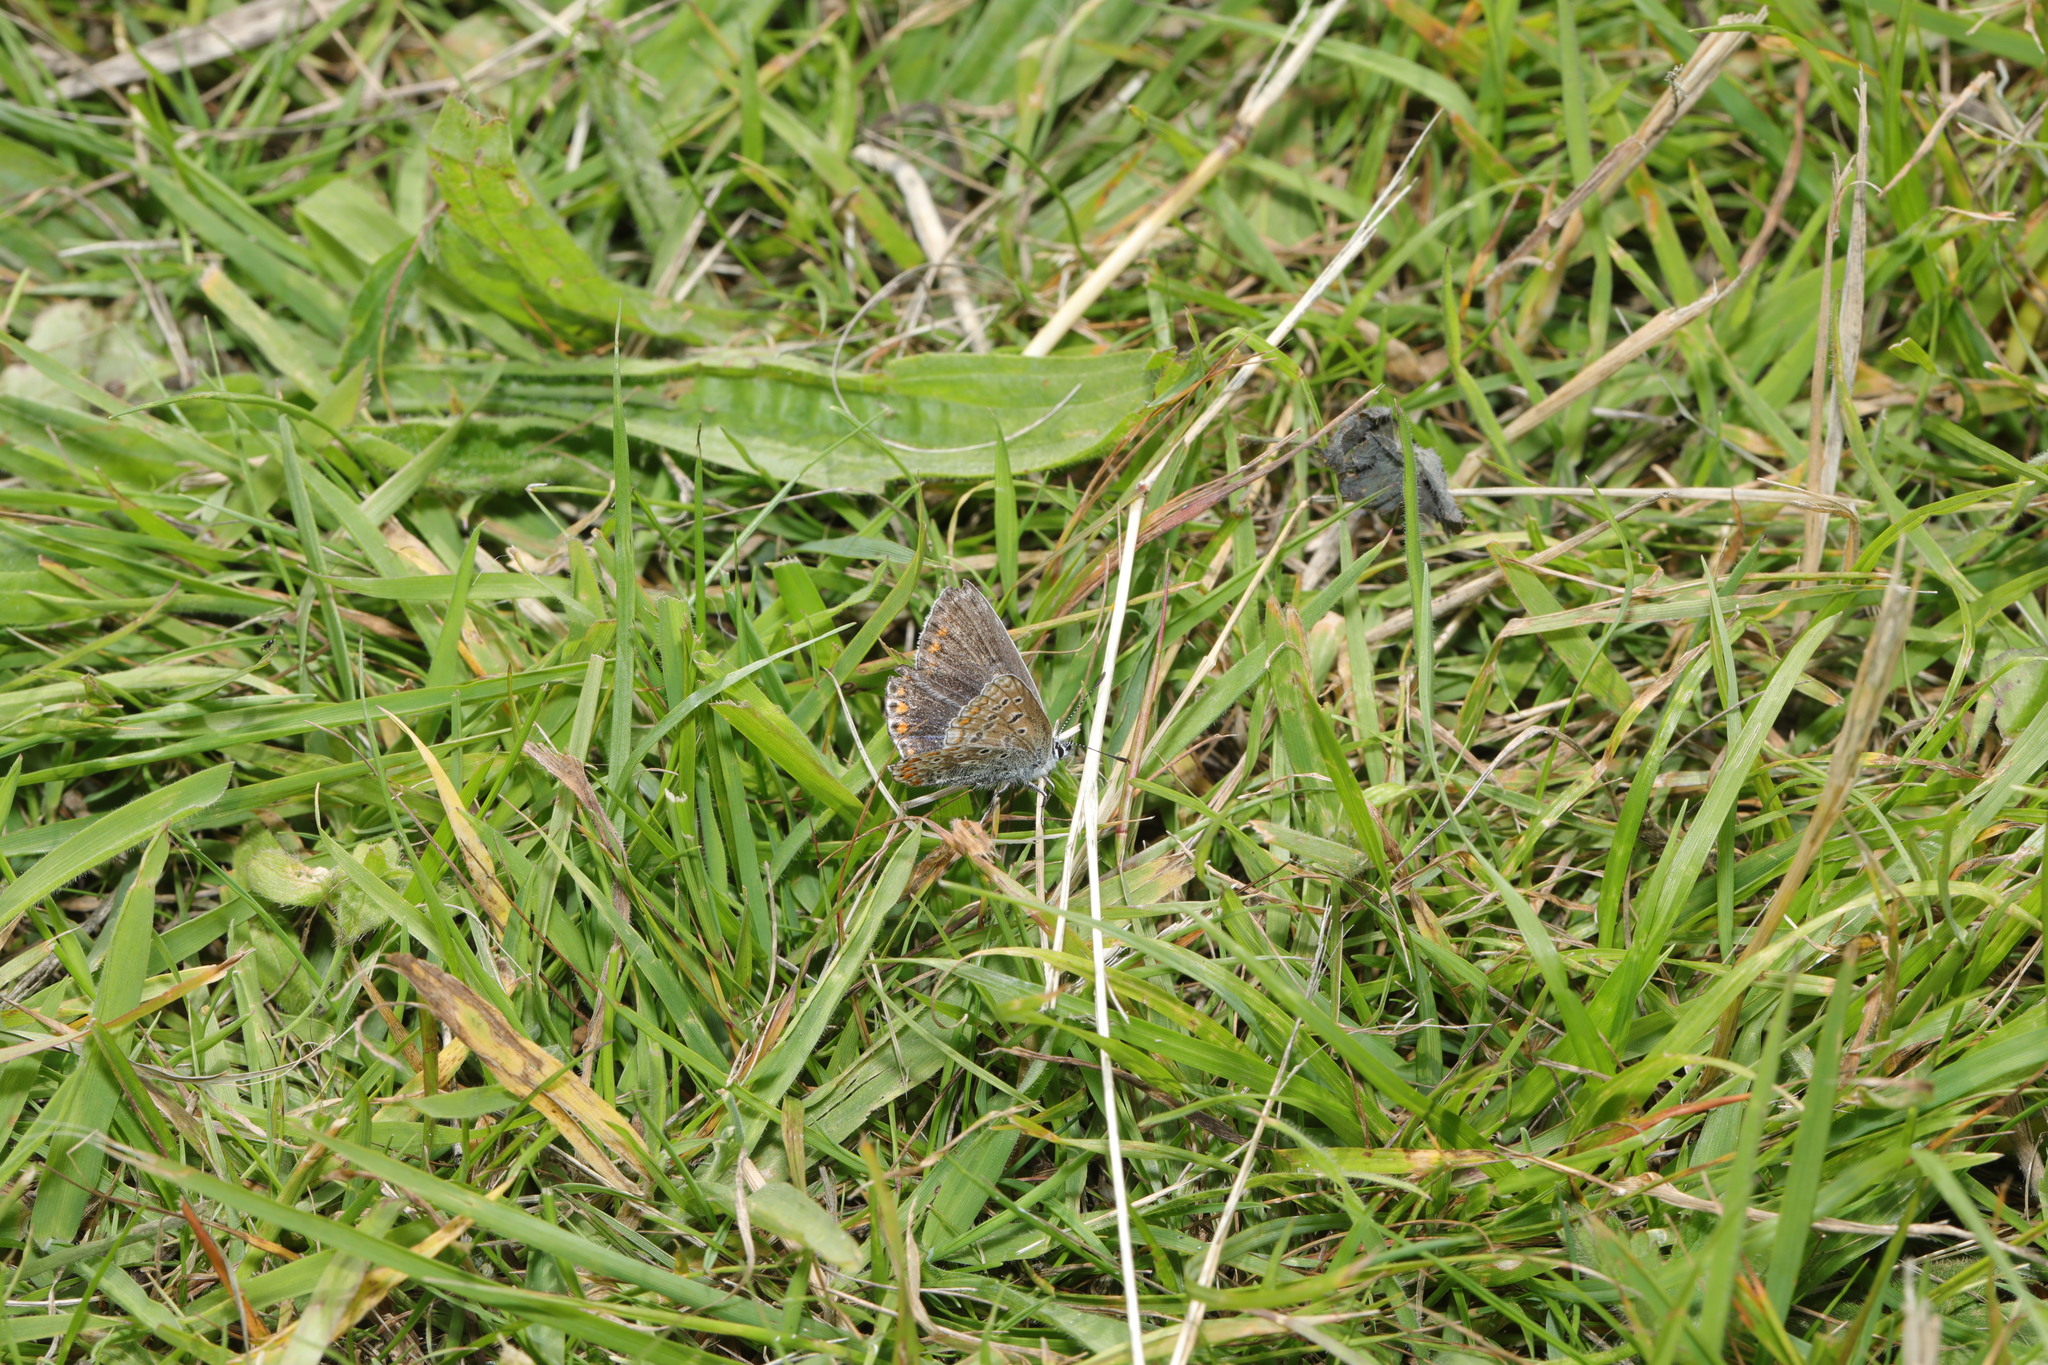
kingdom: Animalia
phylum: Arthropoda
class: Insecta
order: Lepidoptera
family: Lycaenidae
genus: Polyommatus
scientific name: Polyommatus icarus
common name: Common blue
